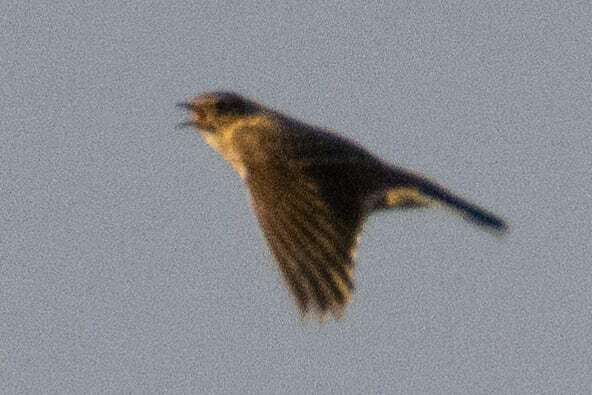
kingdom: Animalia
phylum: Chordata
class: Aves
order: Passeriformes
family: Alaudidae
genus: Alauda
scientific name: Alauda arvensis
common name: Eurasian skylark
